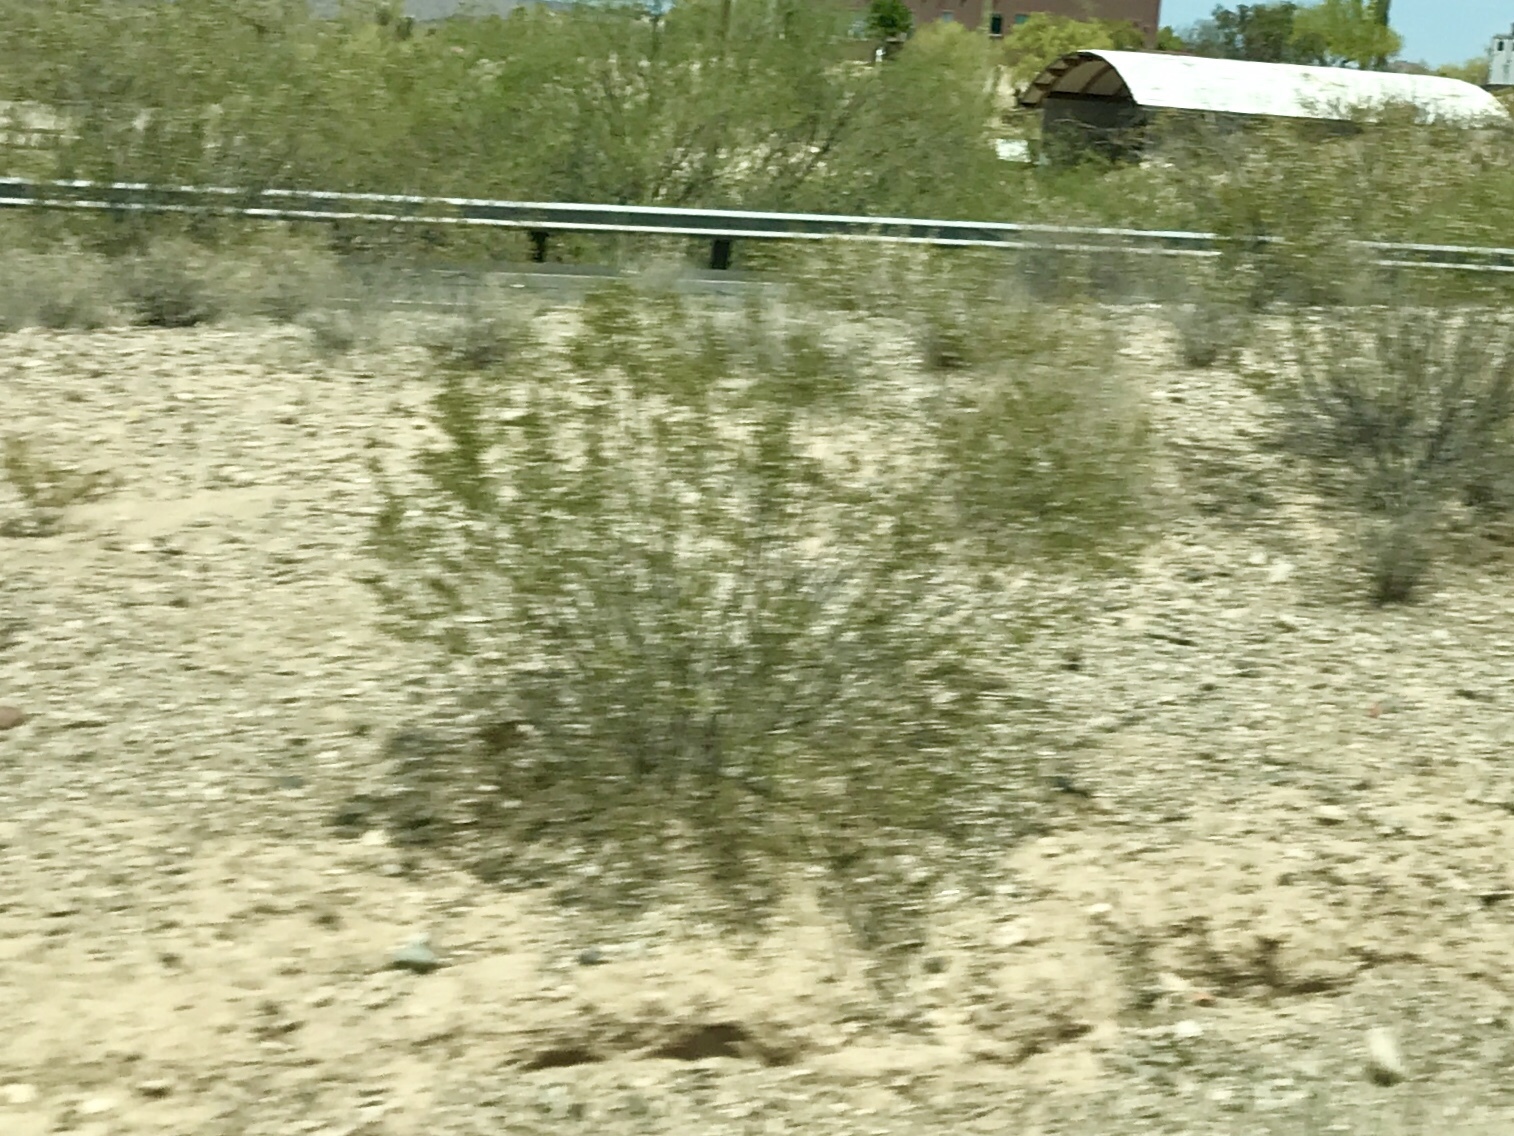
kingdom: Plantae
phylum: Tracheophyta
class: Magnoliopsida
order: Zygophyllales
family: Zygophyllaceae
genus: Larrea
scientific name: Larrea tridentata
